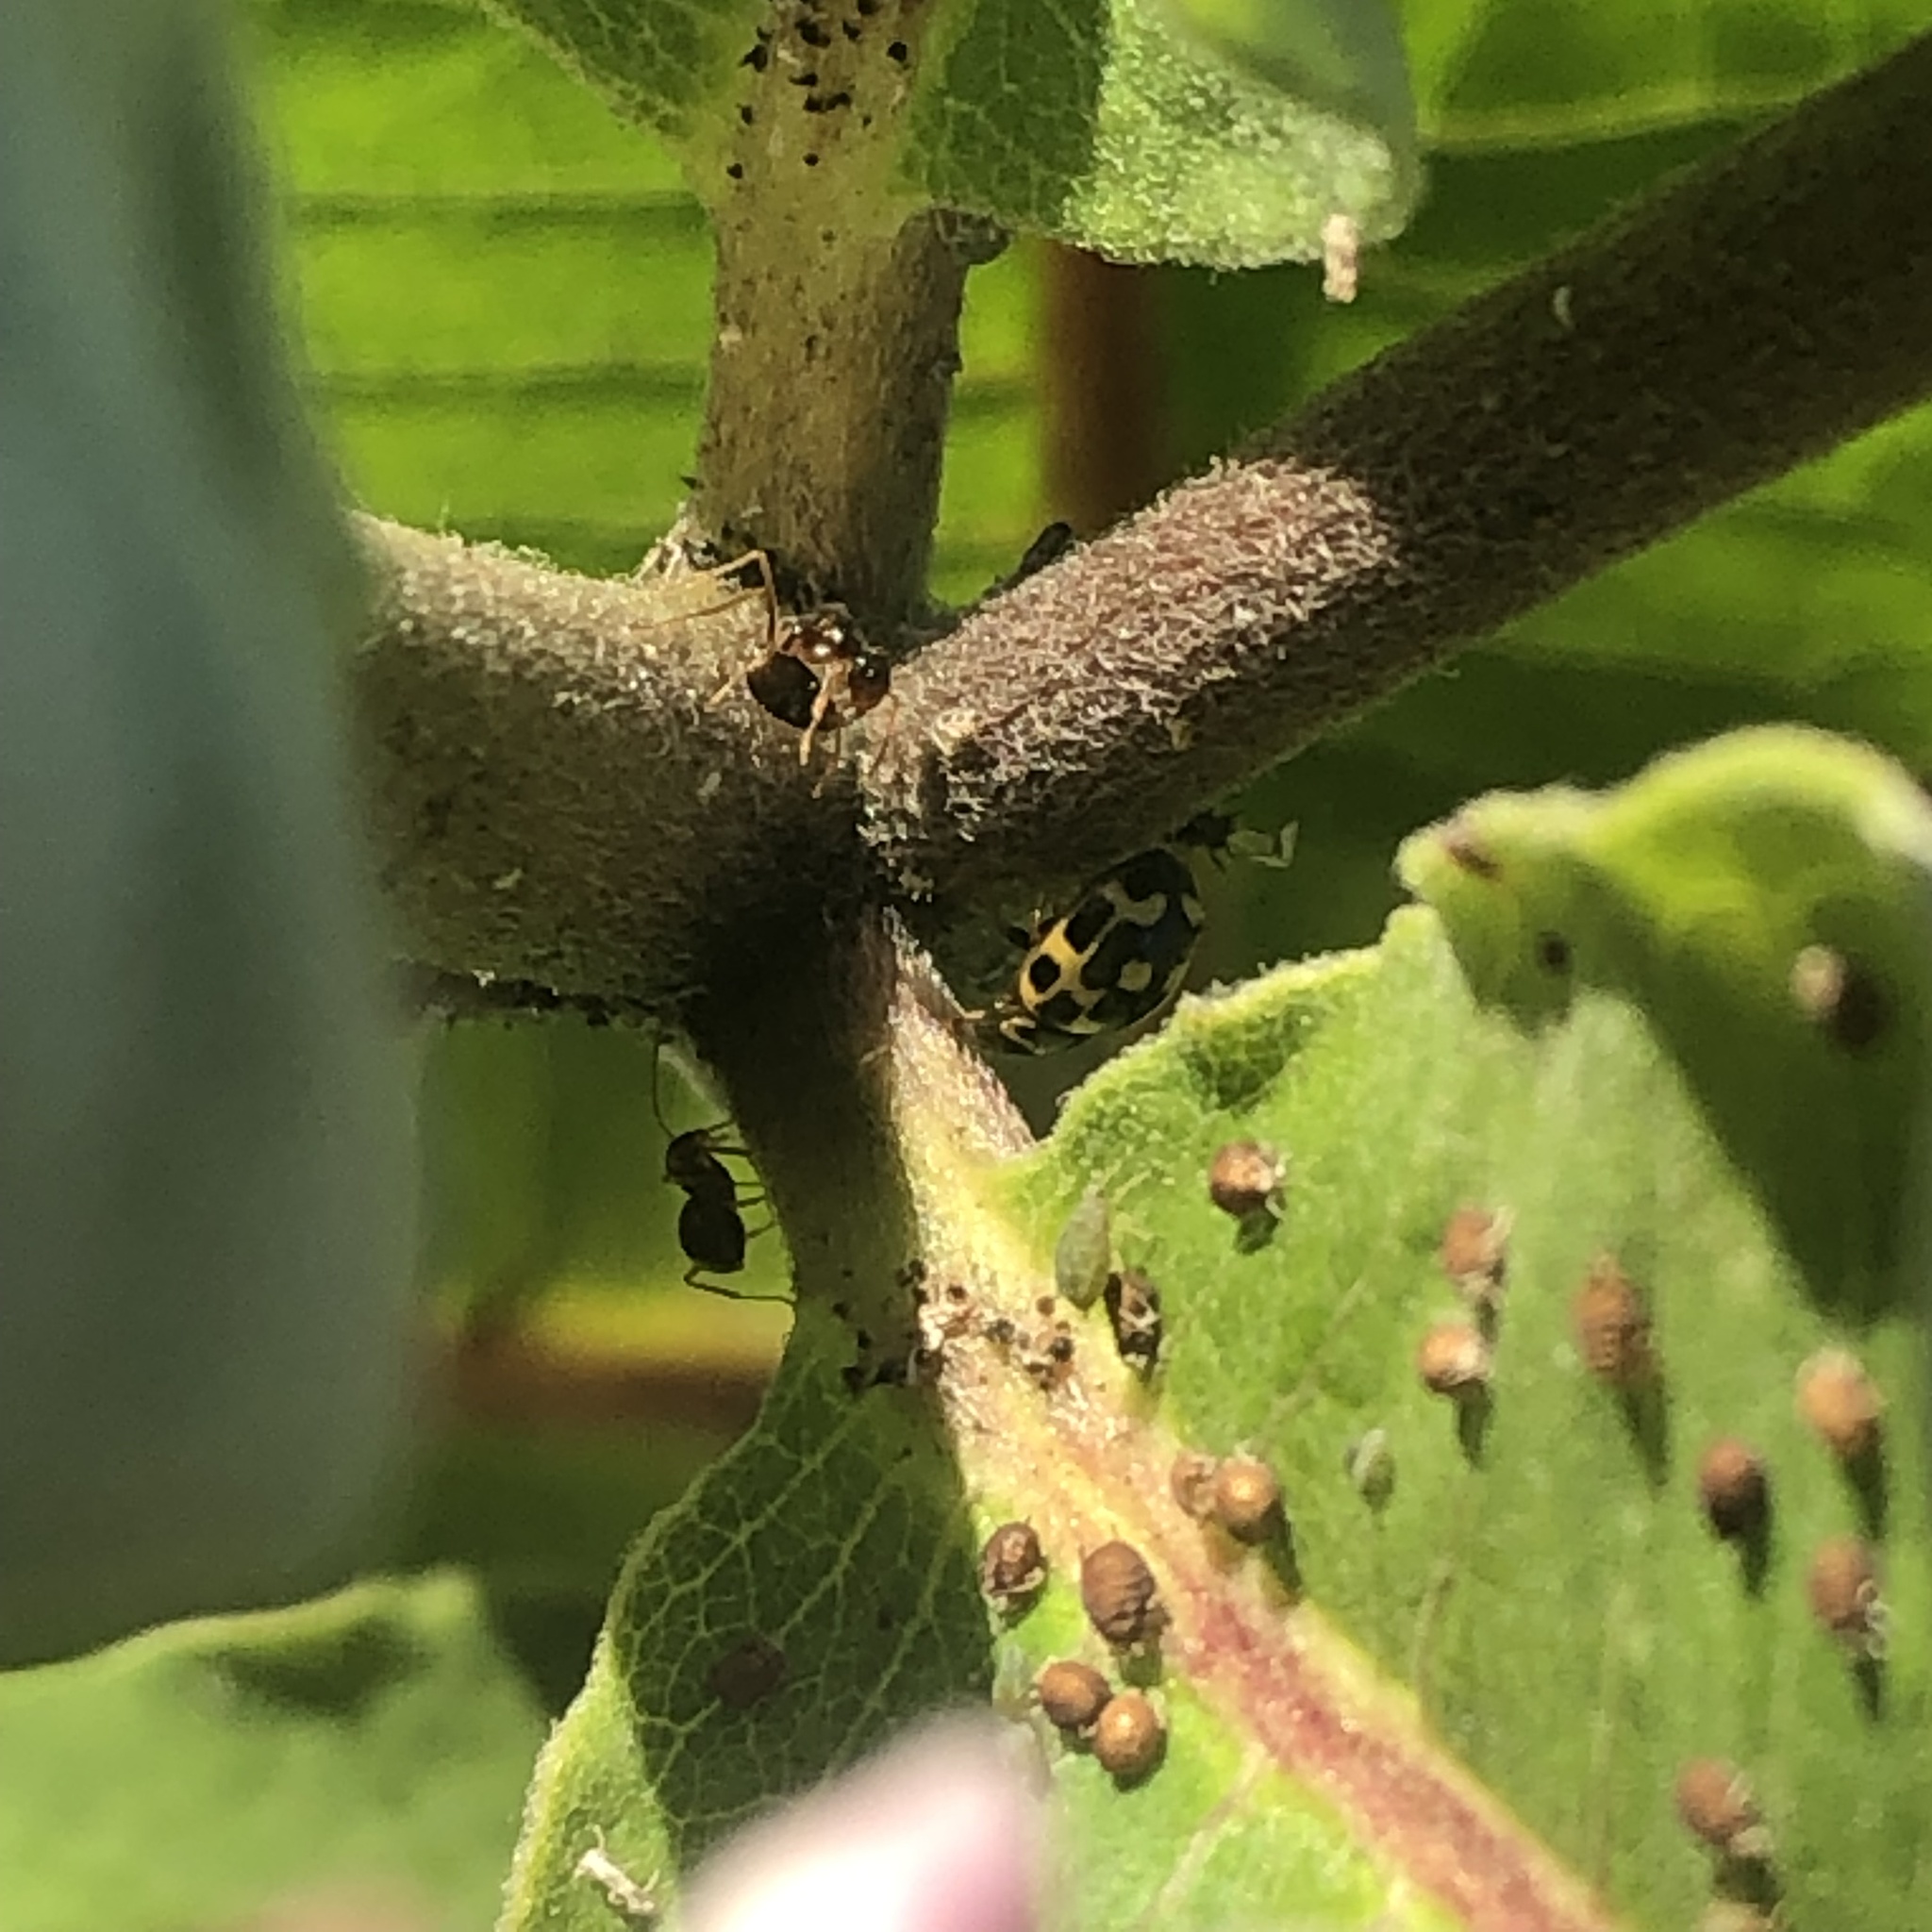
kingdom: Animalia
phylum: Arthropoda
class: Insecta
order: Coleoptera
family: Coccinellidae
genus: Propylaea
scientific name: Propylaea quatuordecimpunctata
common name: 14-spotted ladybird beetle
